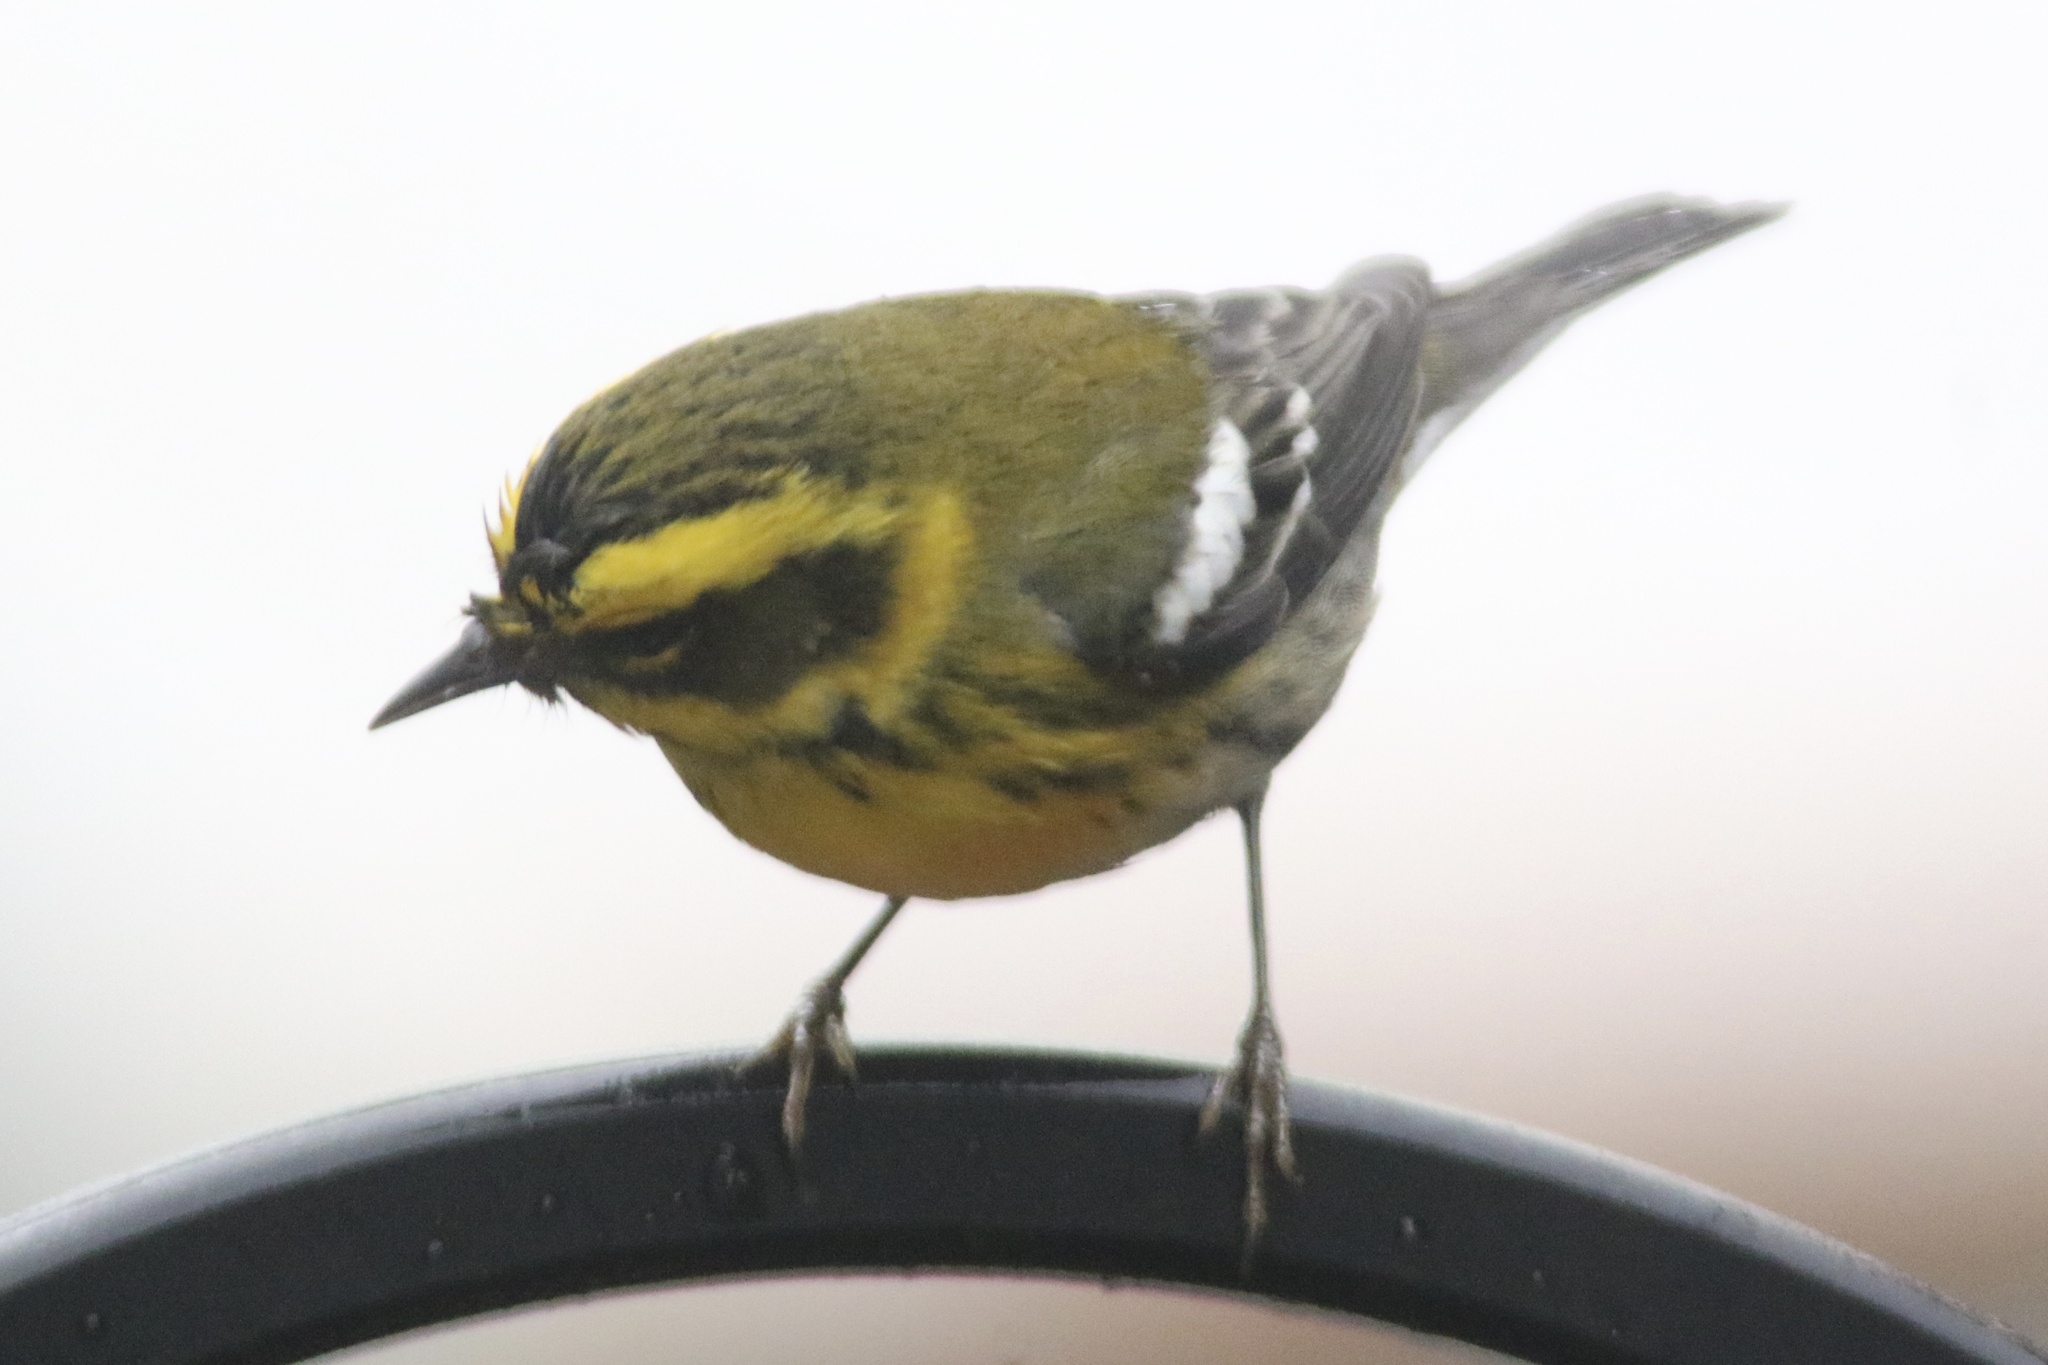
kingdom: Animalia
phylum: Chordata
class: Aves
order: Passeriformes
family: Parulidae
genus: Setophaga
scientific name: Setophaga townsendi
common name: Townsend's warbler
